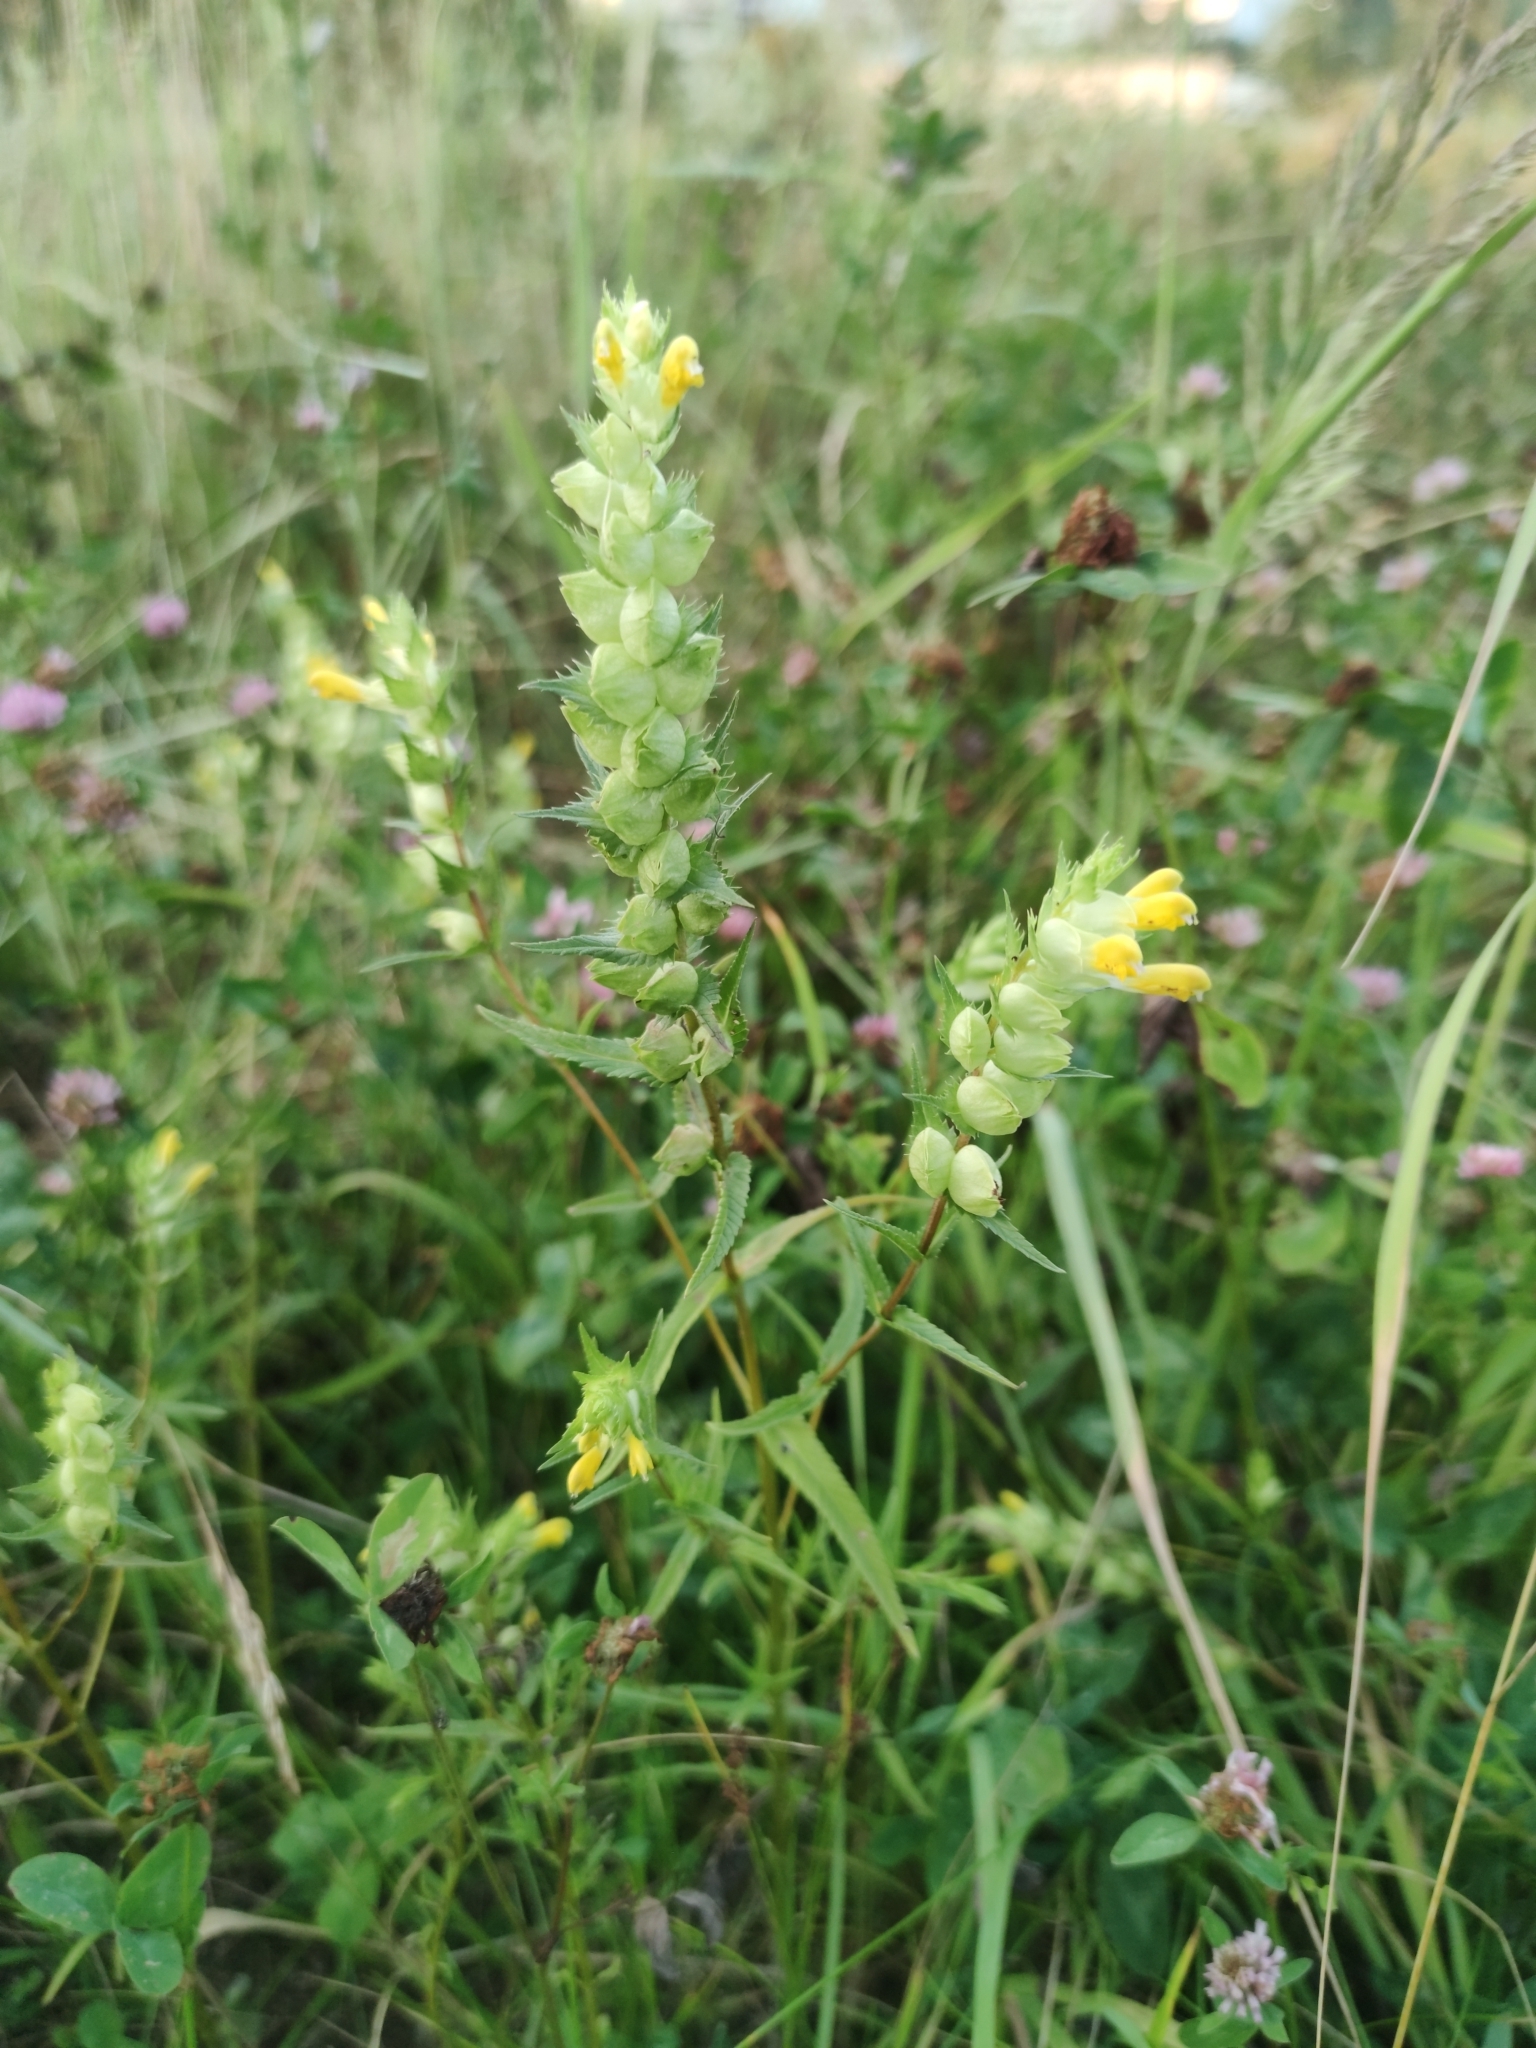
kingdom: Plantae
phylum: Tracheophyta
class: Magnoliopsida
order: Lamiales
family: Orobanchaceae
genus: Rhinanthus
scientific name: Rhinanthus serotinus
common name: Late-flowering yellow rattle
